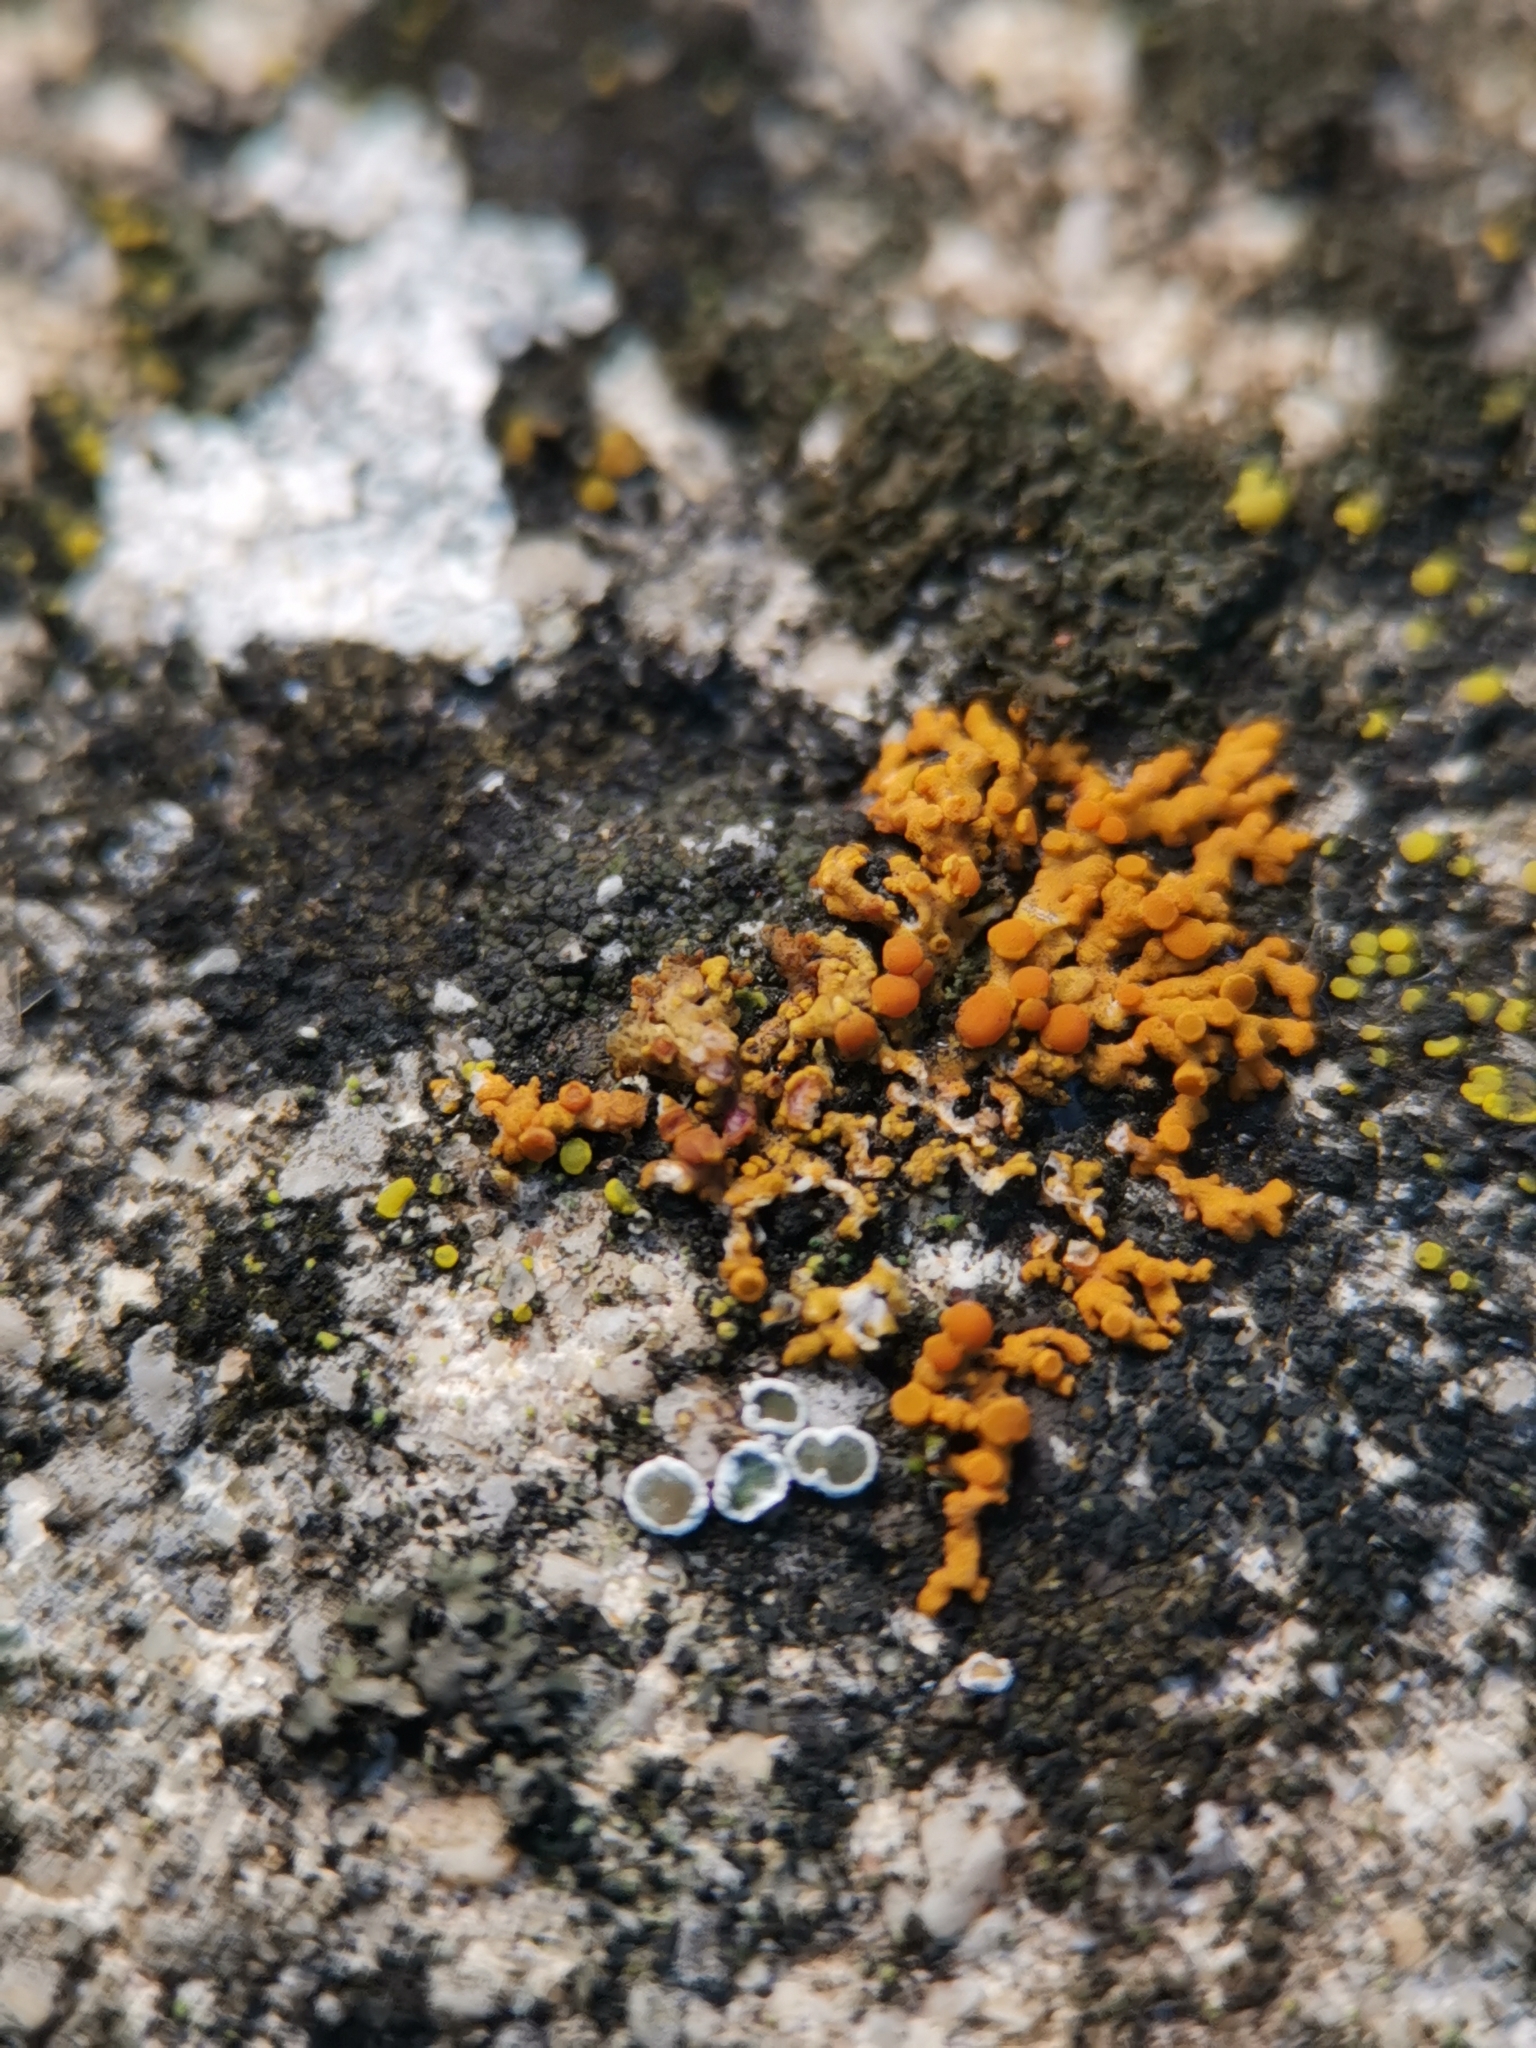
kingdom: Fungi
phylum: Ascomycota
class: Lecanoromycetes
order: Teloschistales
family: Teloschistaceae
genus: Xanthoria
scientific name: Xanthoria elegans
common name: Elegant sunburst lichen
